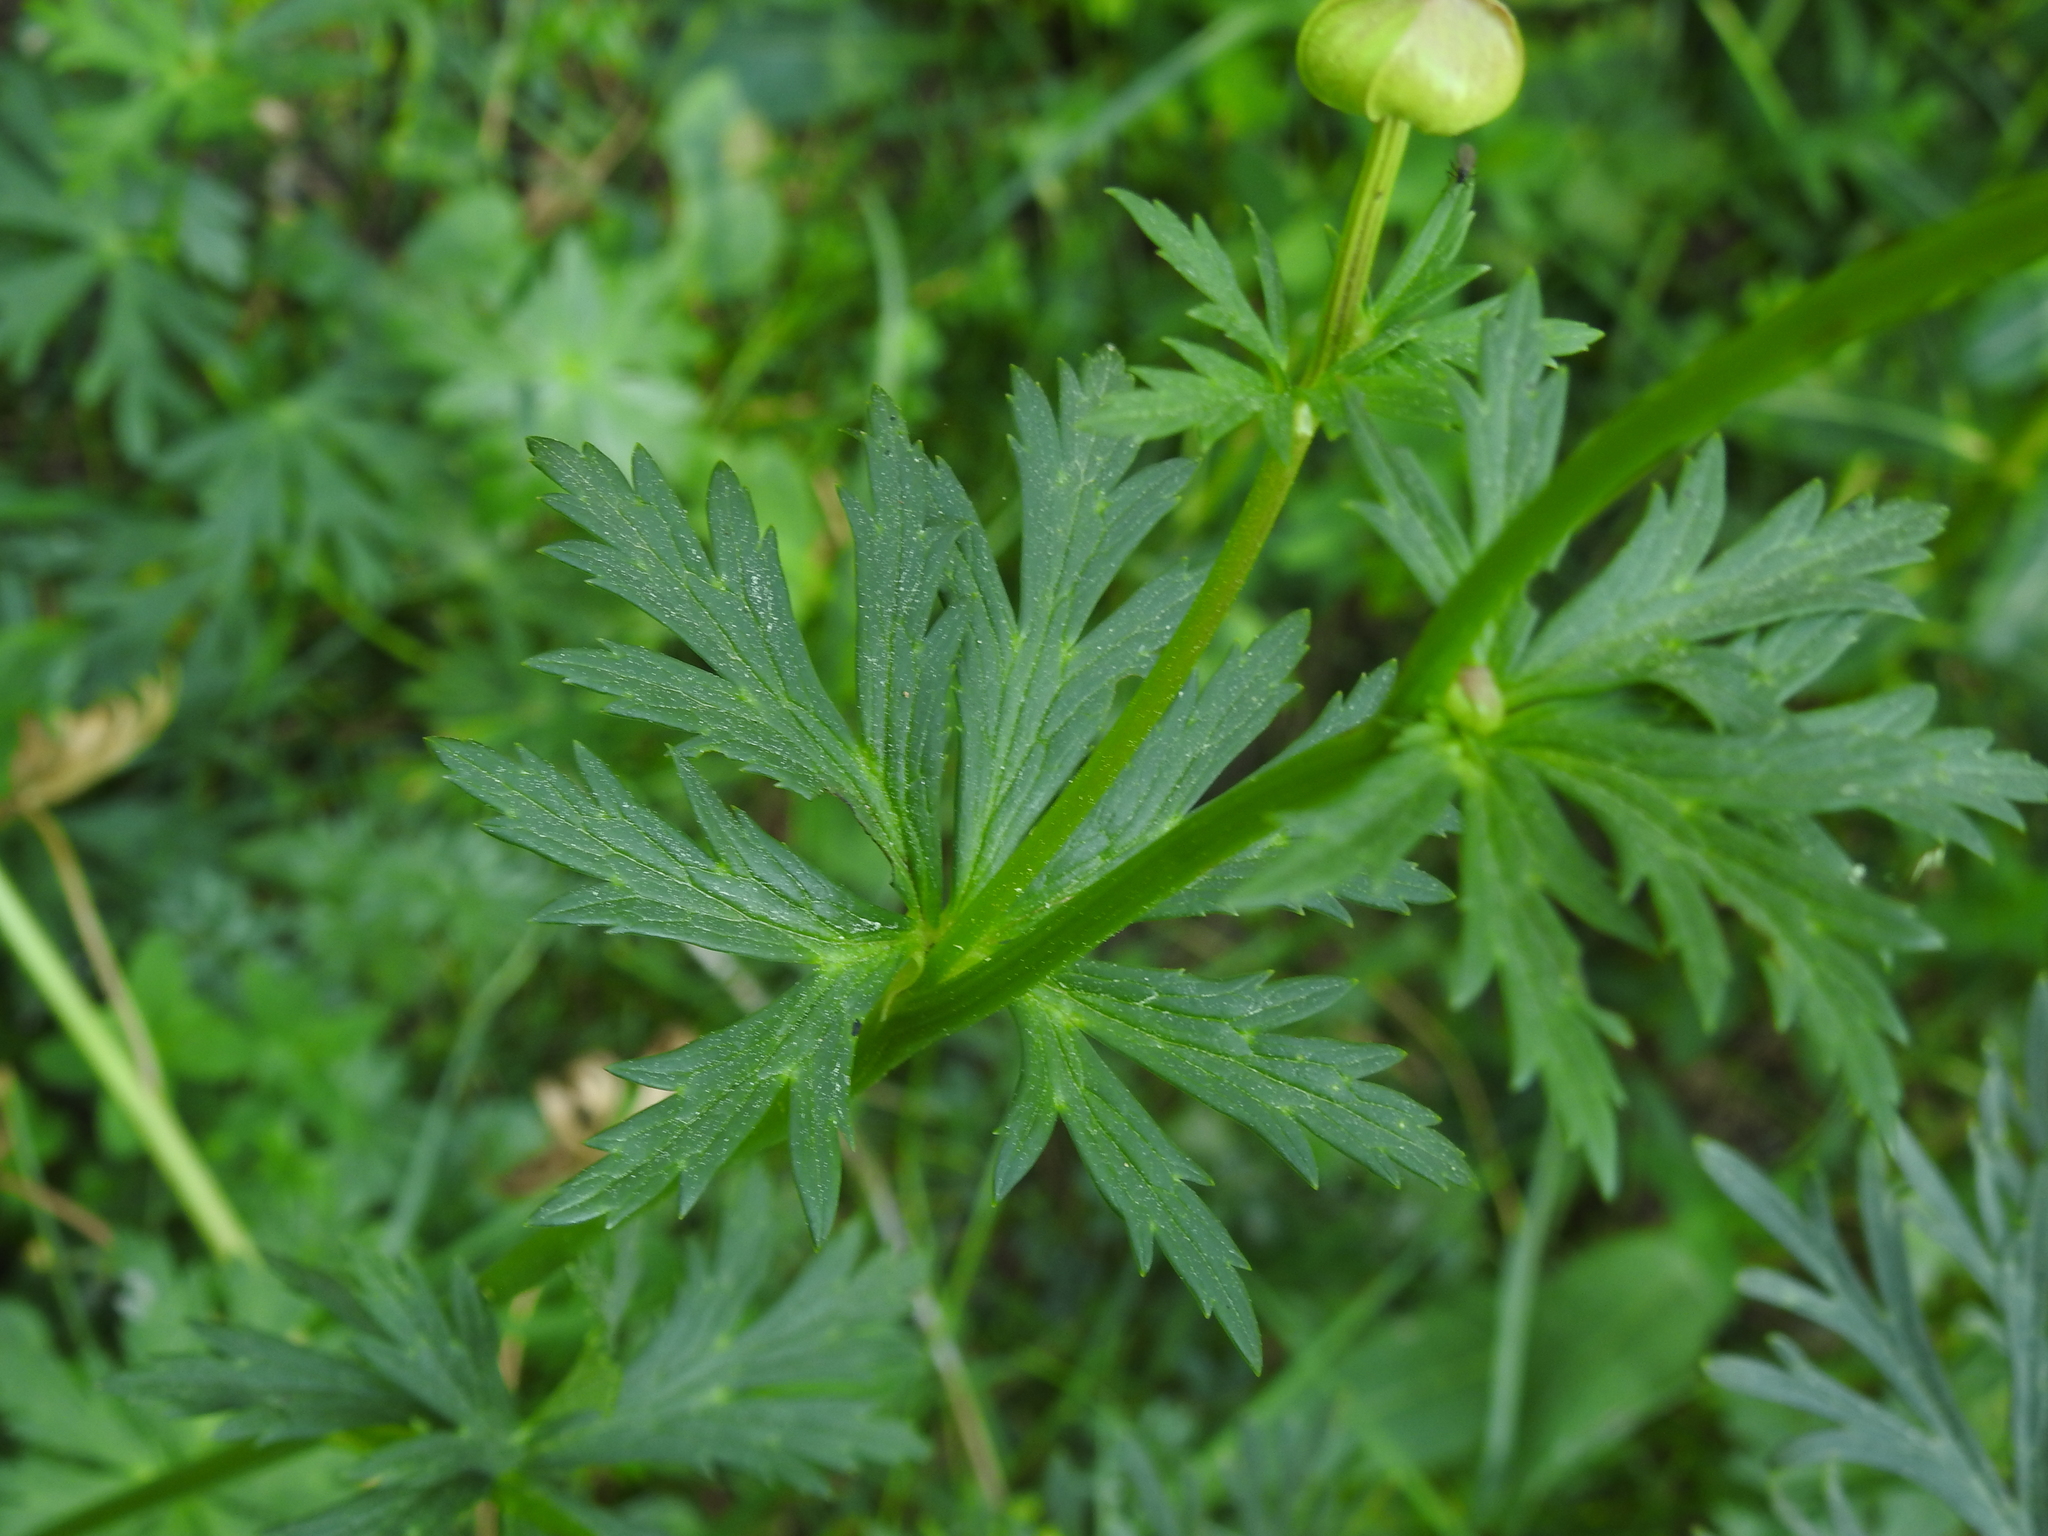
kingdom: Plantae
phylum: Tracheophyta
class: Magnoliopsida
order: Ranunculales
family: Ranunculaceae
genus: Trollius
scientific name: Trollius europaeus
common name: European globeflower
